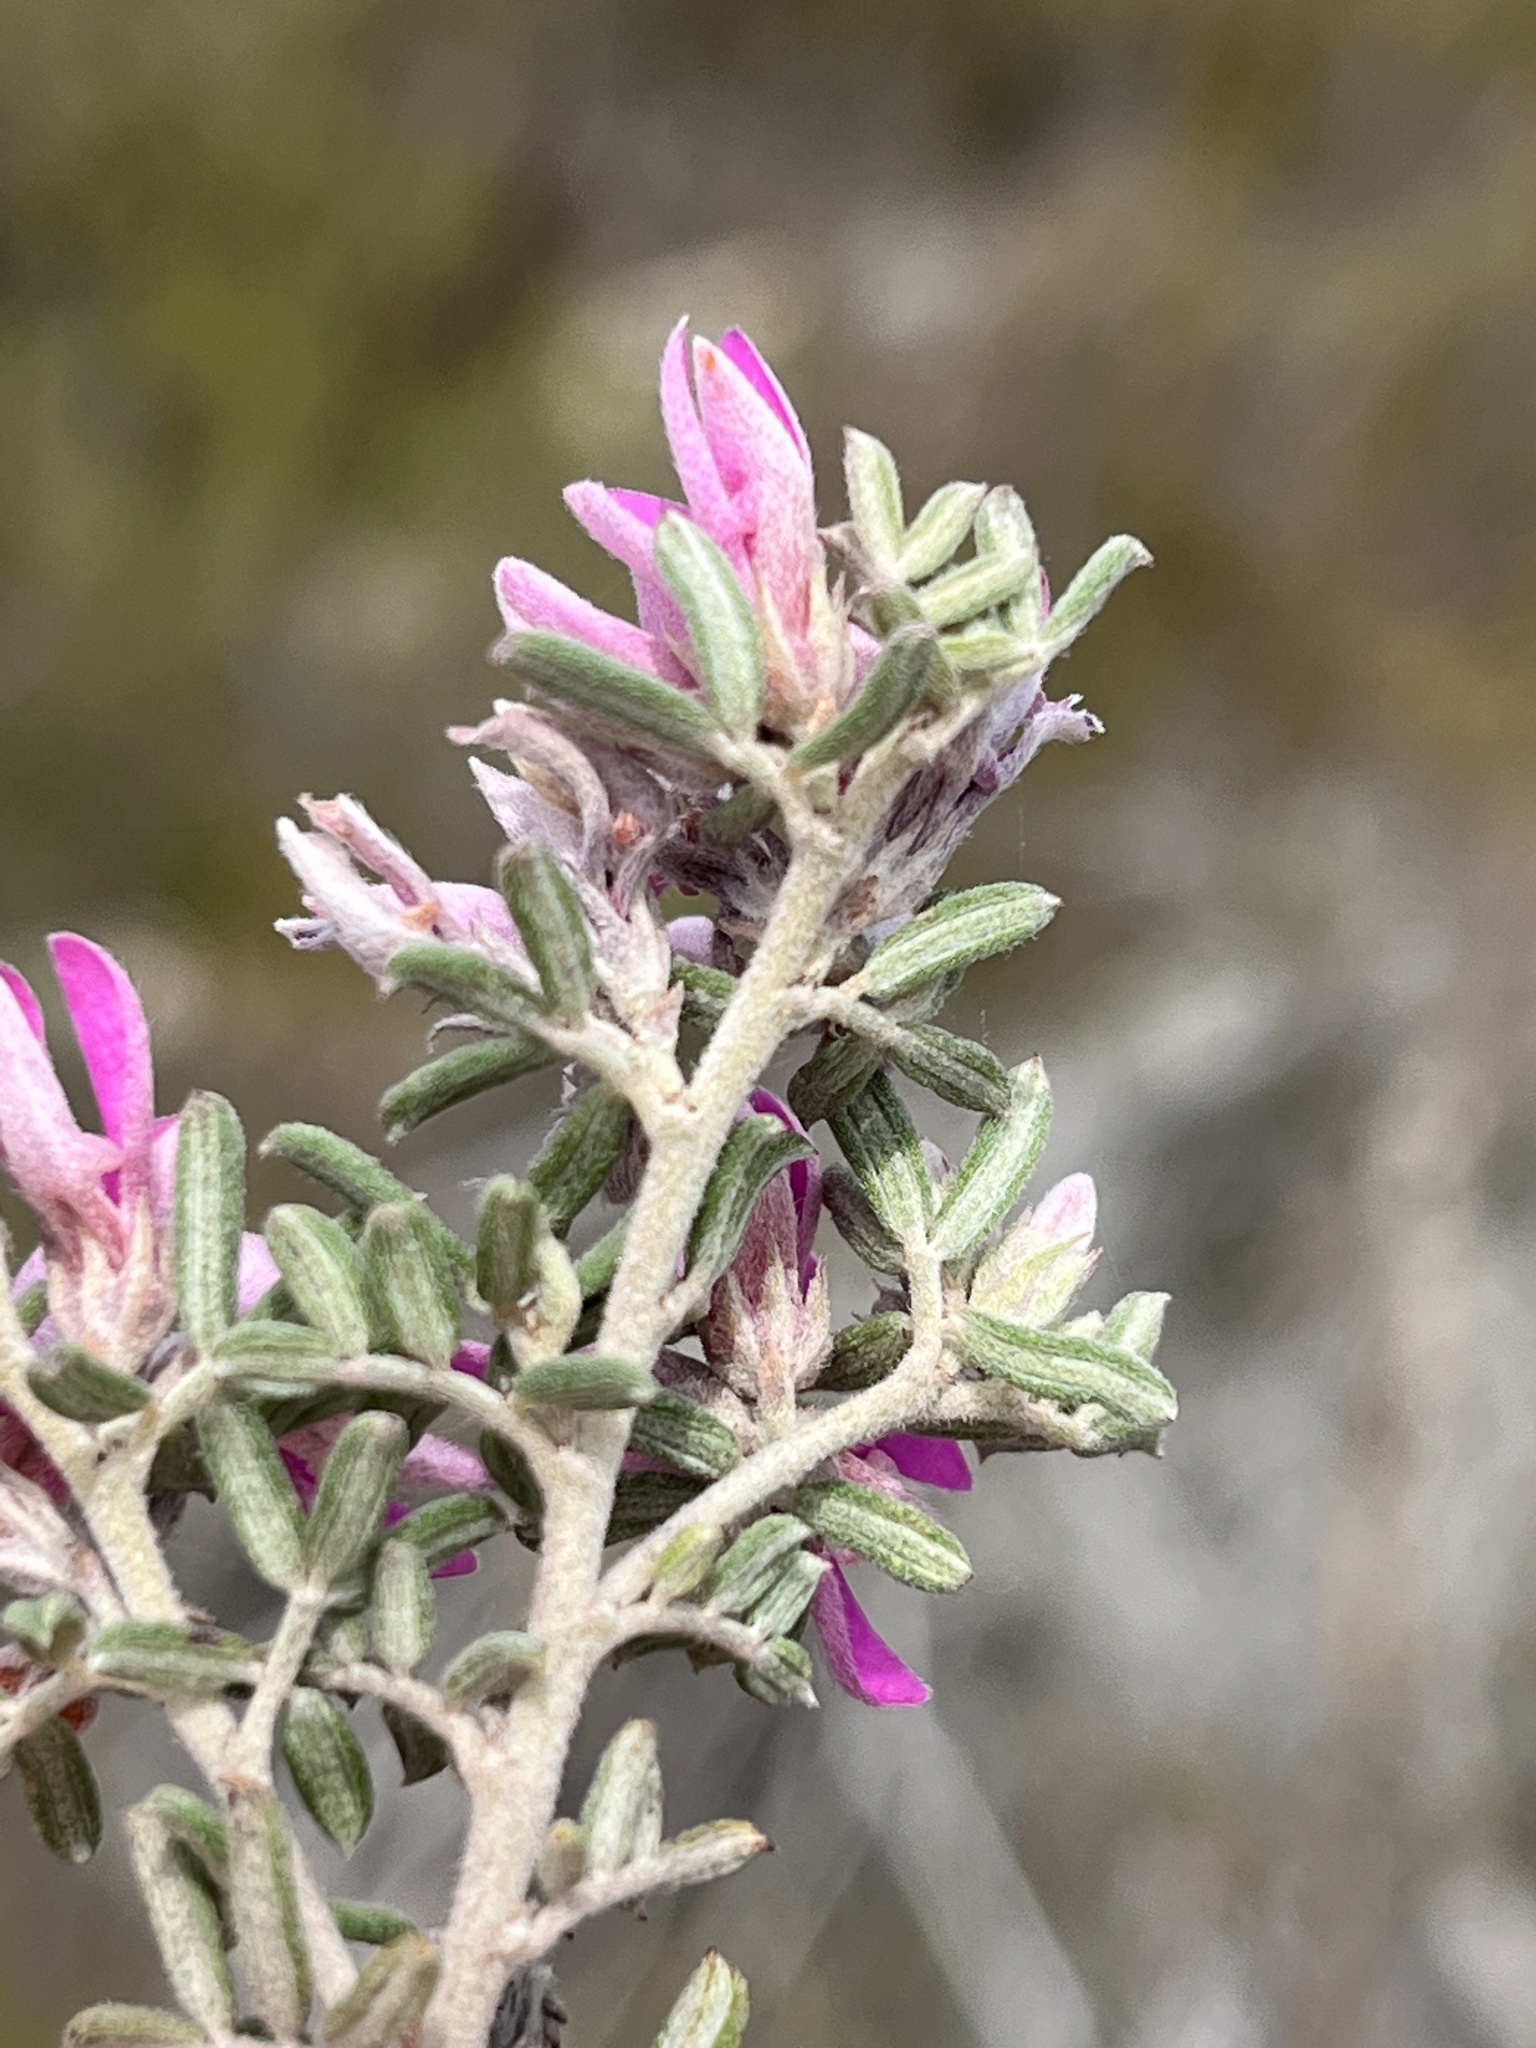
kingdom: Plantae
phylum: Tracheophyta
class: Magnoliopsida
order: Fabales
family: Fabaceae
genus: Indigofera
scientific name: Indigofera
